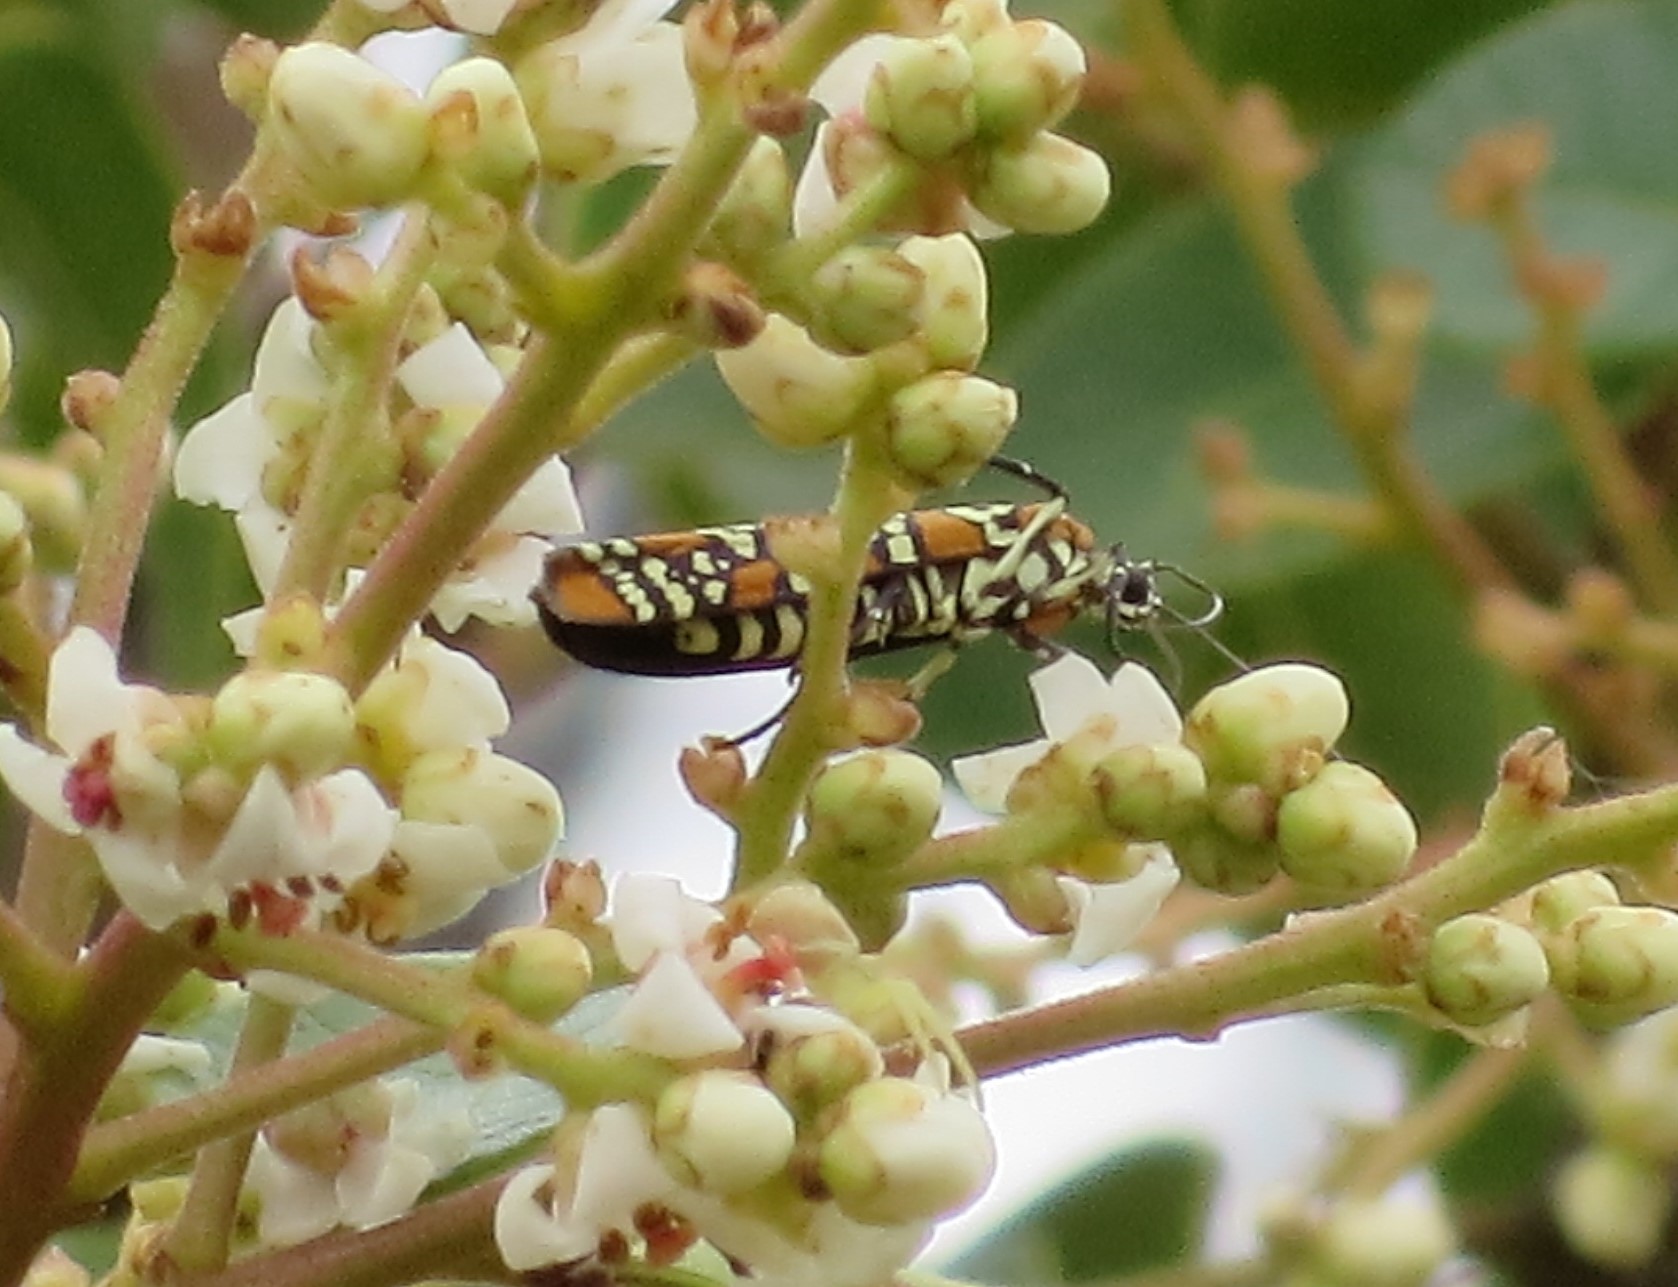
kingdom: Animalia
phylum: Arthropoda
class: Insecta
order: Lepidoptera
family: Attevidae
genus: Atteva
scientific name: Atteva punctella
